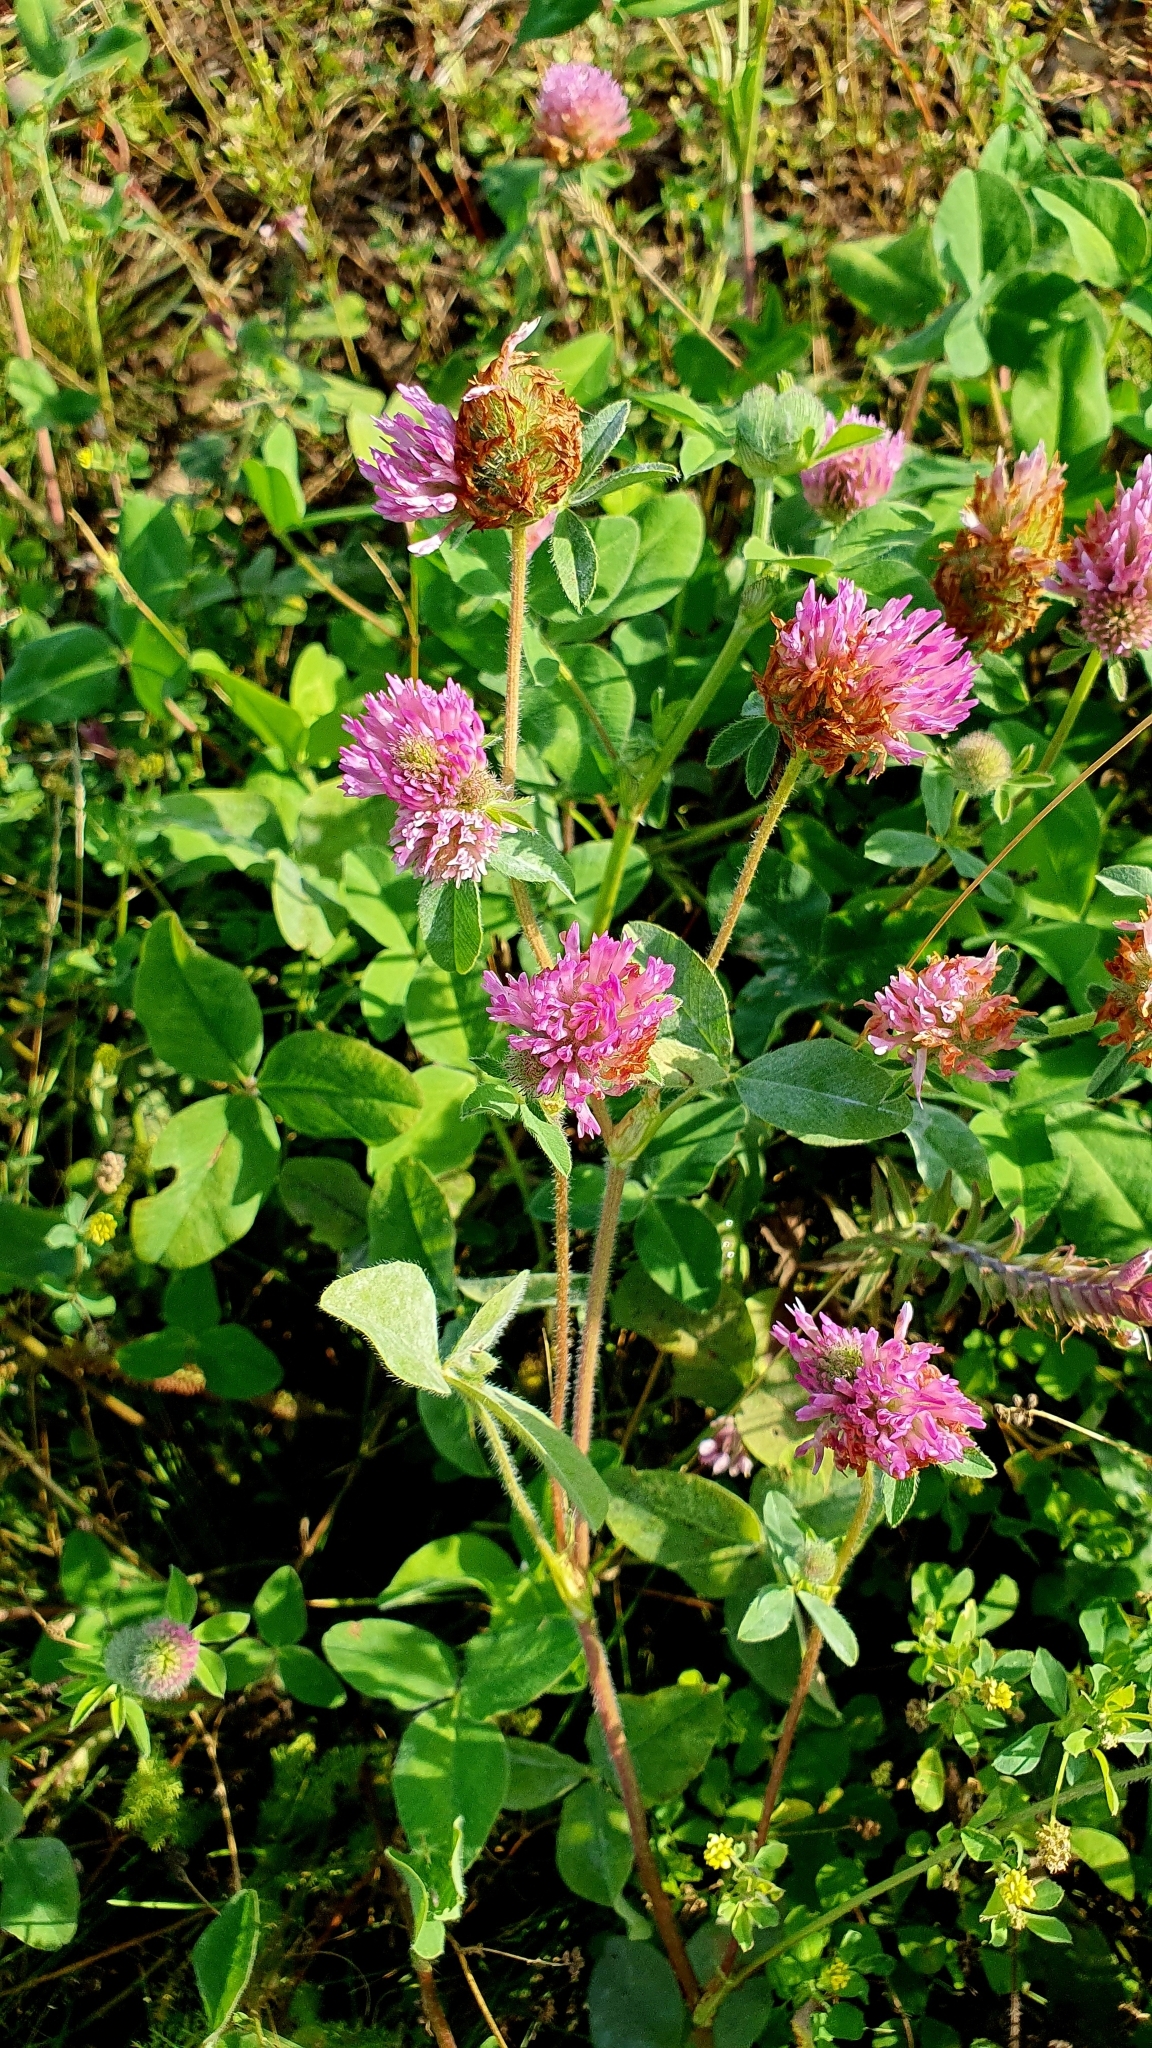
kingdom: Plantae
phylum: Tracheophyta
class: Magnoliopsida
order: Fabales
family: Fabaceae
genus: Trifolium
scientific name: Trifolium pratense
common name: Red clover
